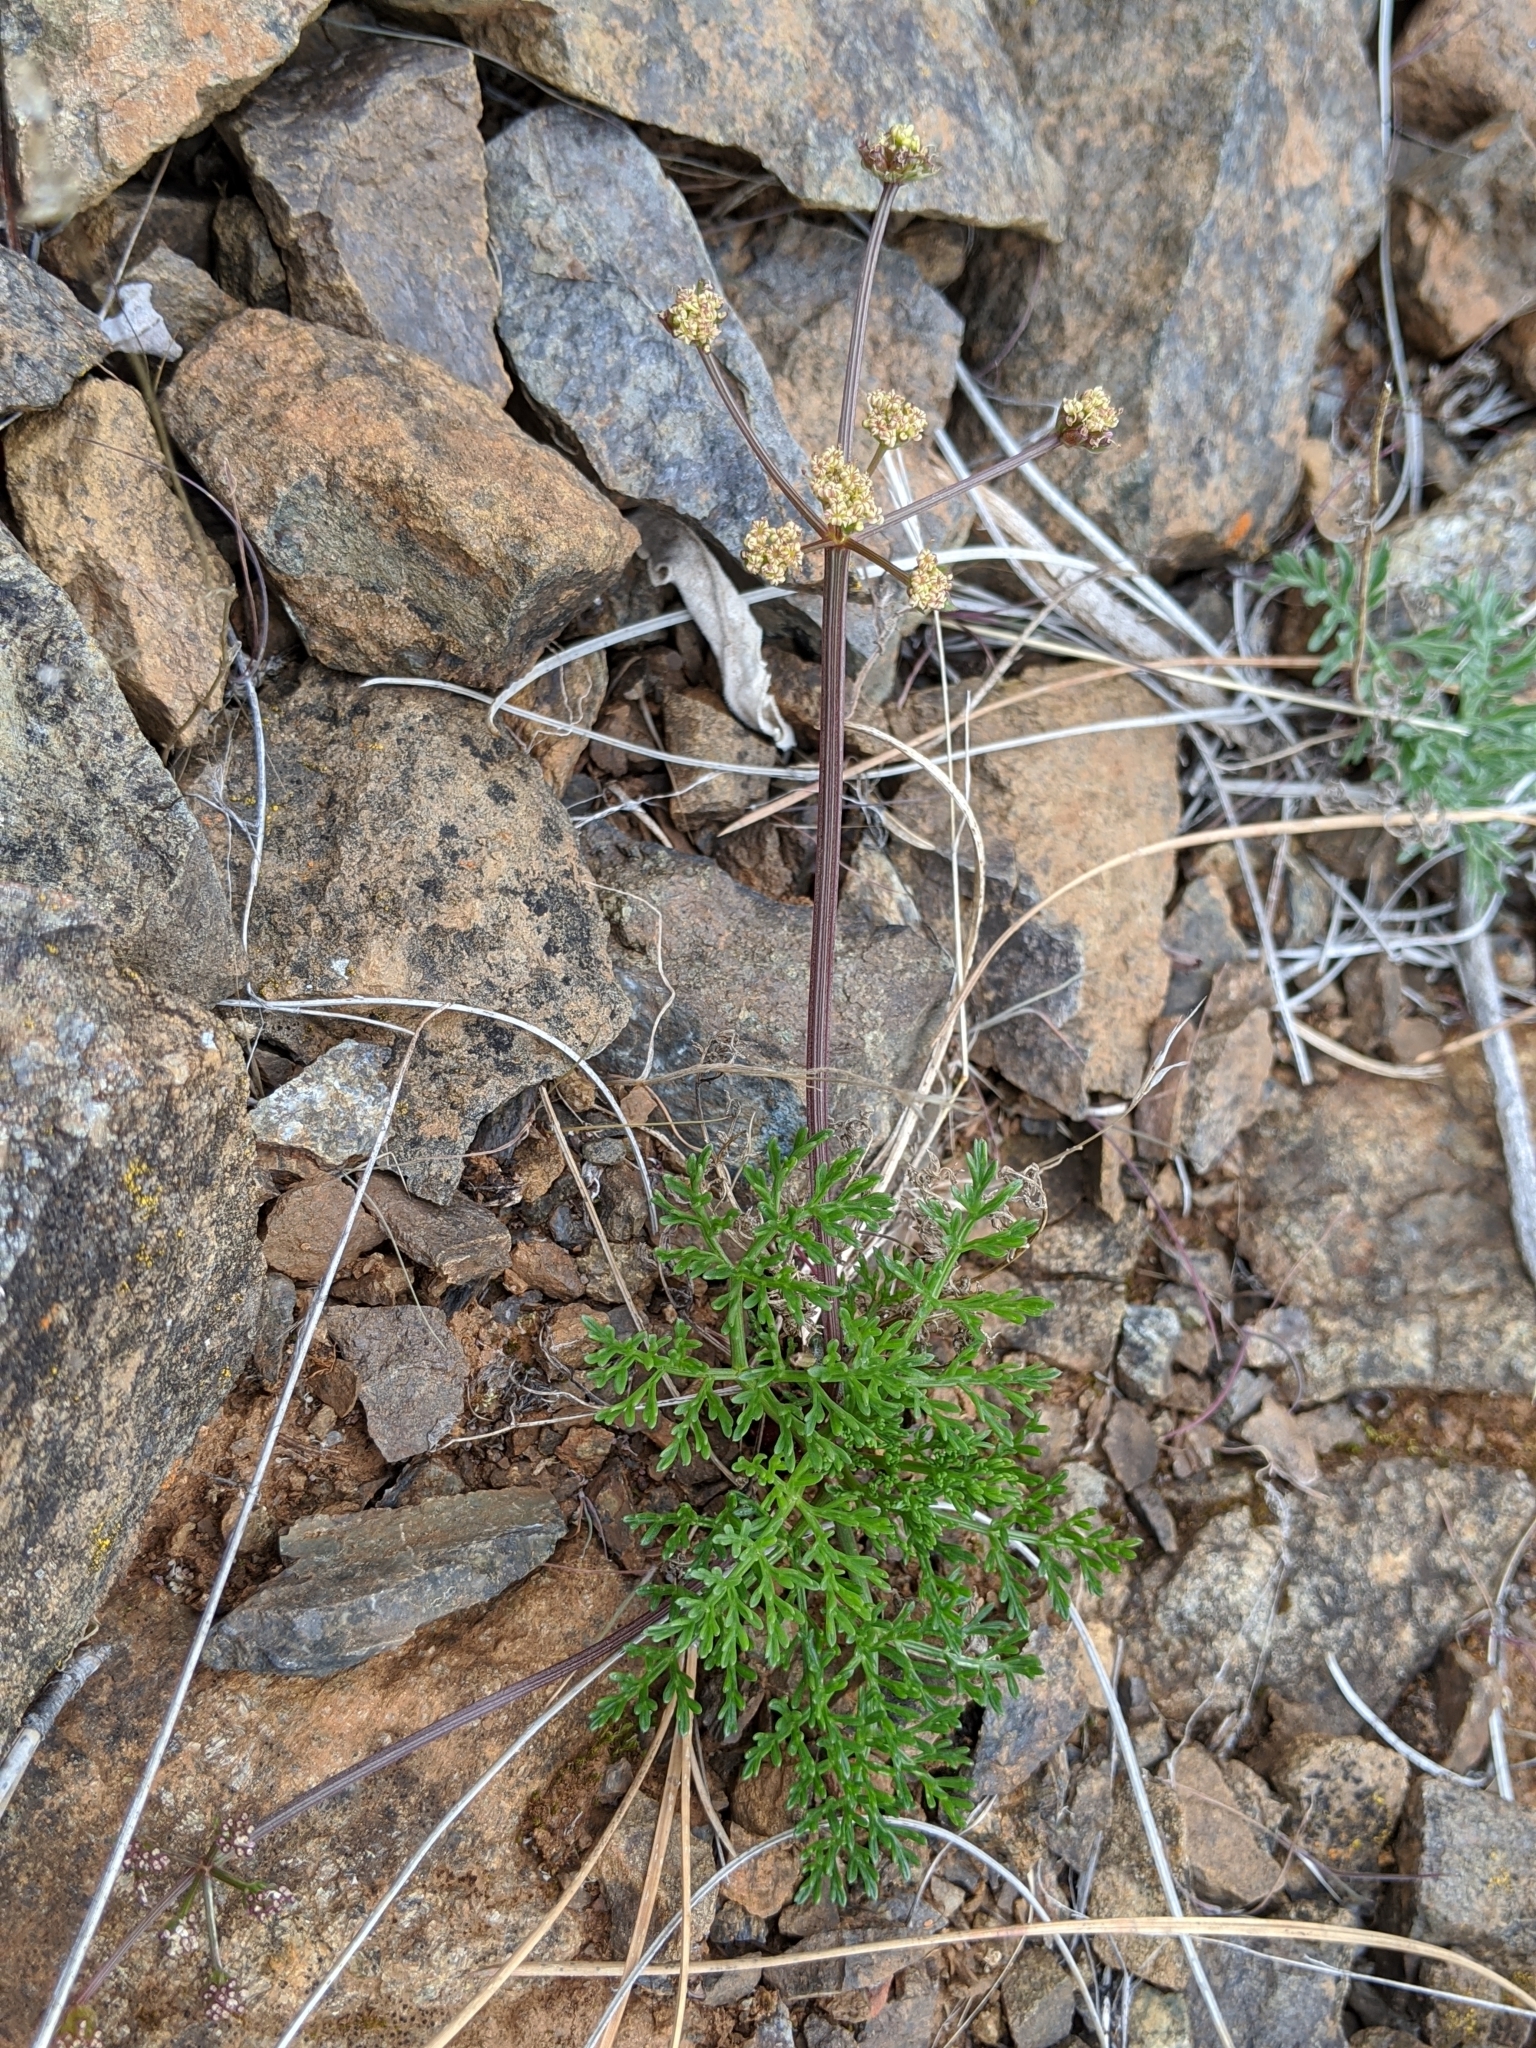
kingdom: Plantae
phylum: Tracheophyta
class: Magnoliopsida
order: Apiales
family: Apiaceae
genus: Lomatium
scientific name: Lomatium observatorium
